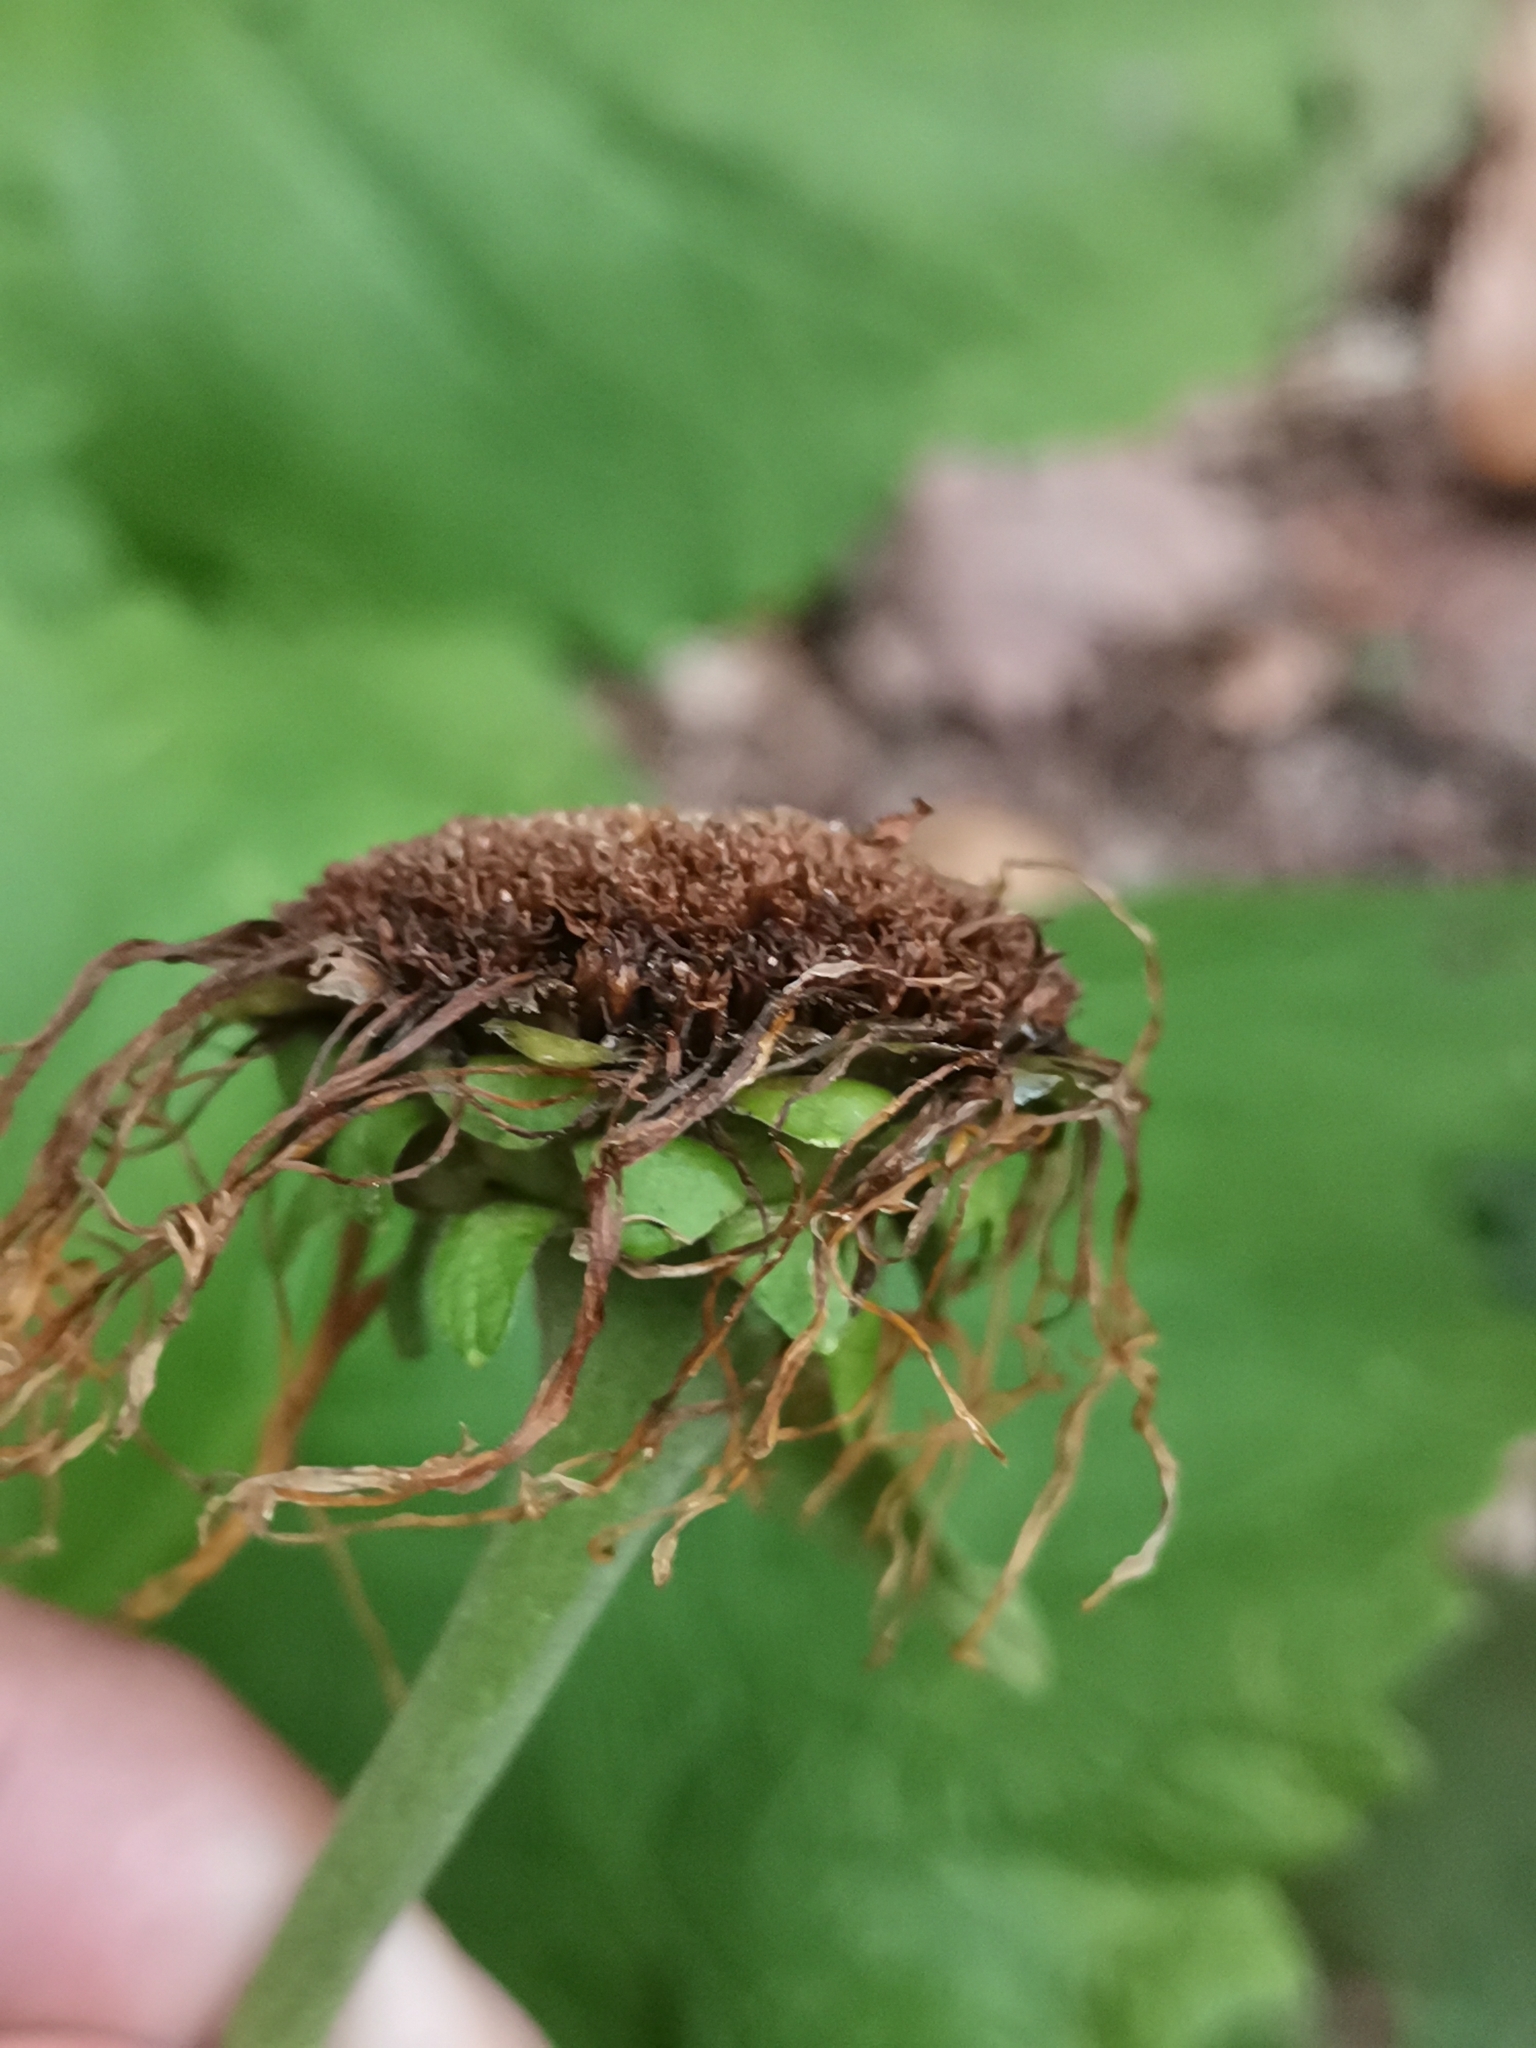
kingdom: Plantae
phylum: Tracheophyta
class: Magnoliopsida
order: Asterales
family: Asteraceae
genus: Telekia
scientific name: Telekia speciosa
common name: Yellow oxeye
